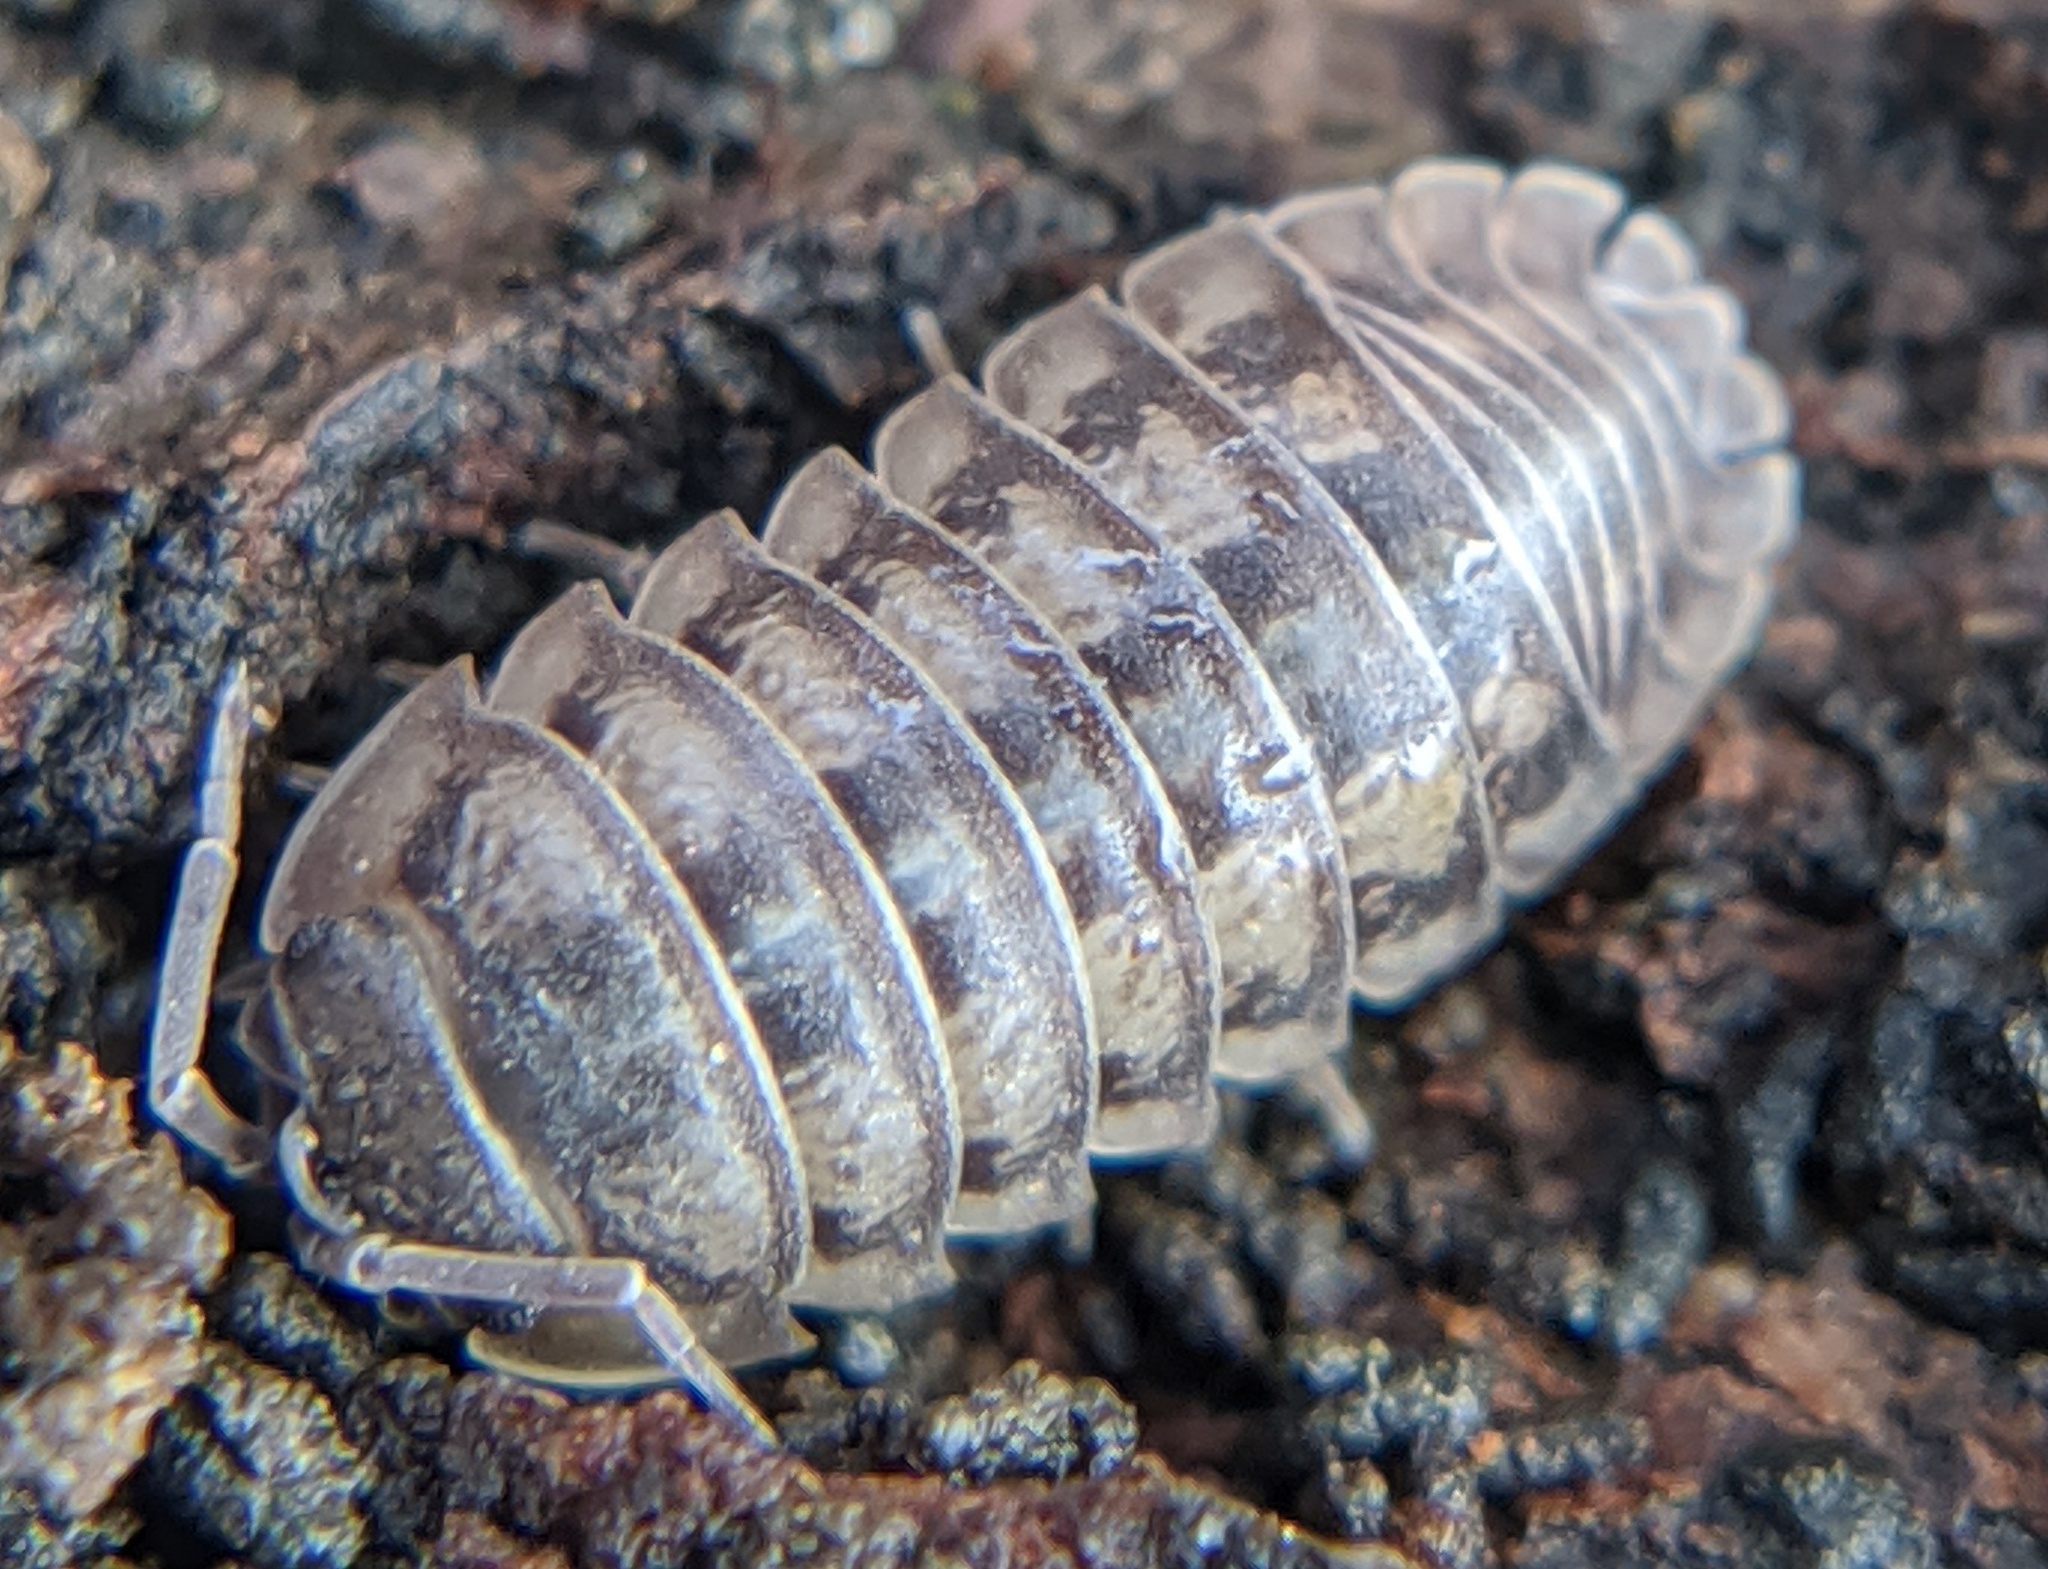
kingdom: Animalia
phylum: Arthropoda
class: Malacostraca
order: Isopoda
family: Armadillidiidae
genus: Armadillidium
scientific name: Armadillidium nasatum
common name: Isopod
